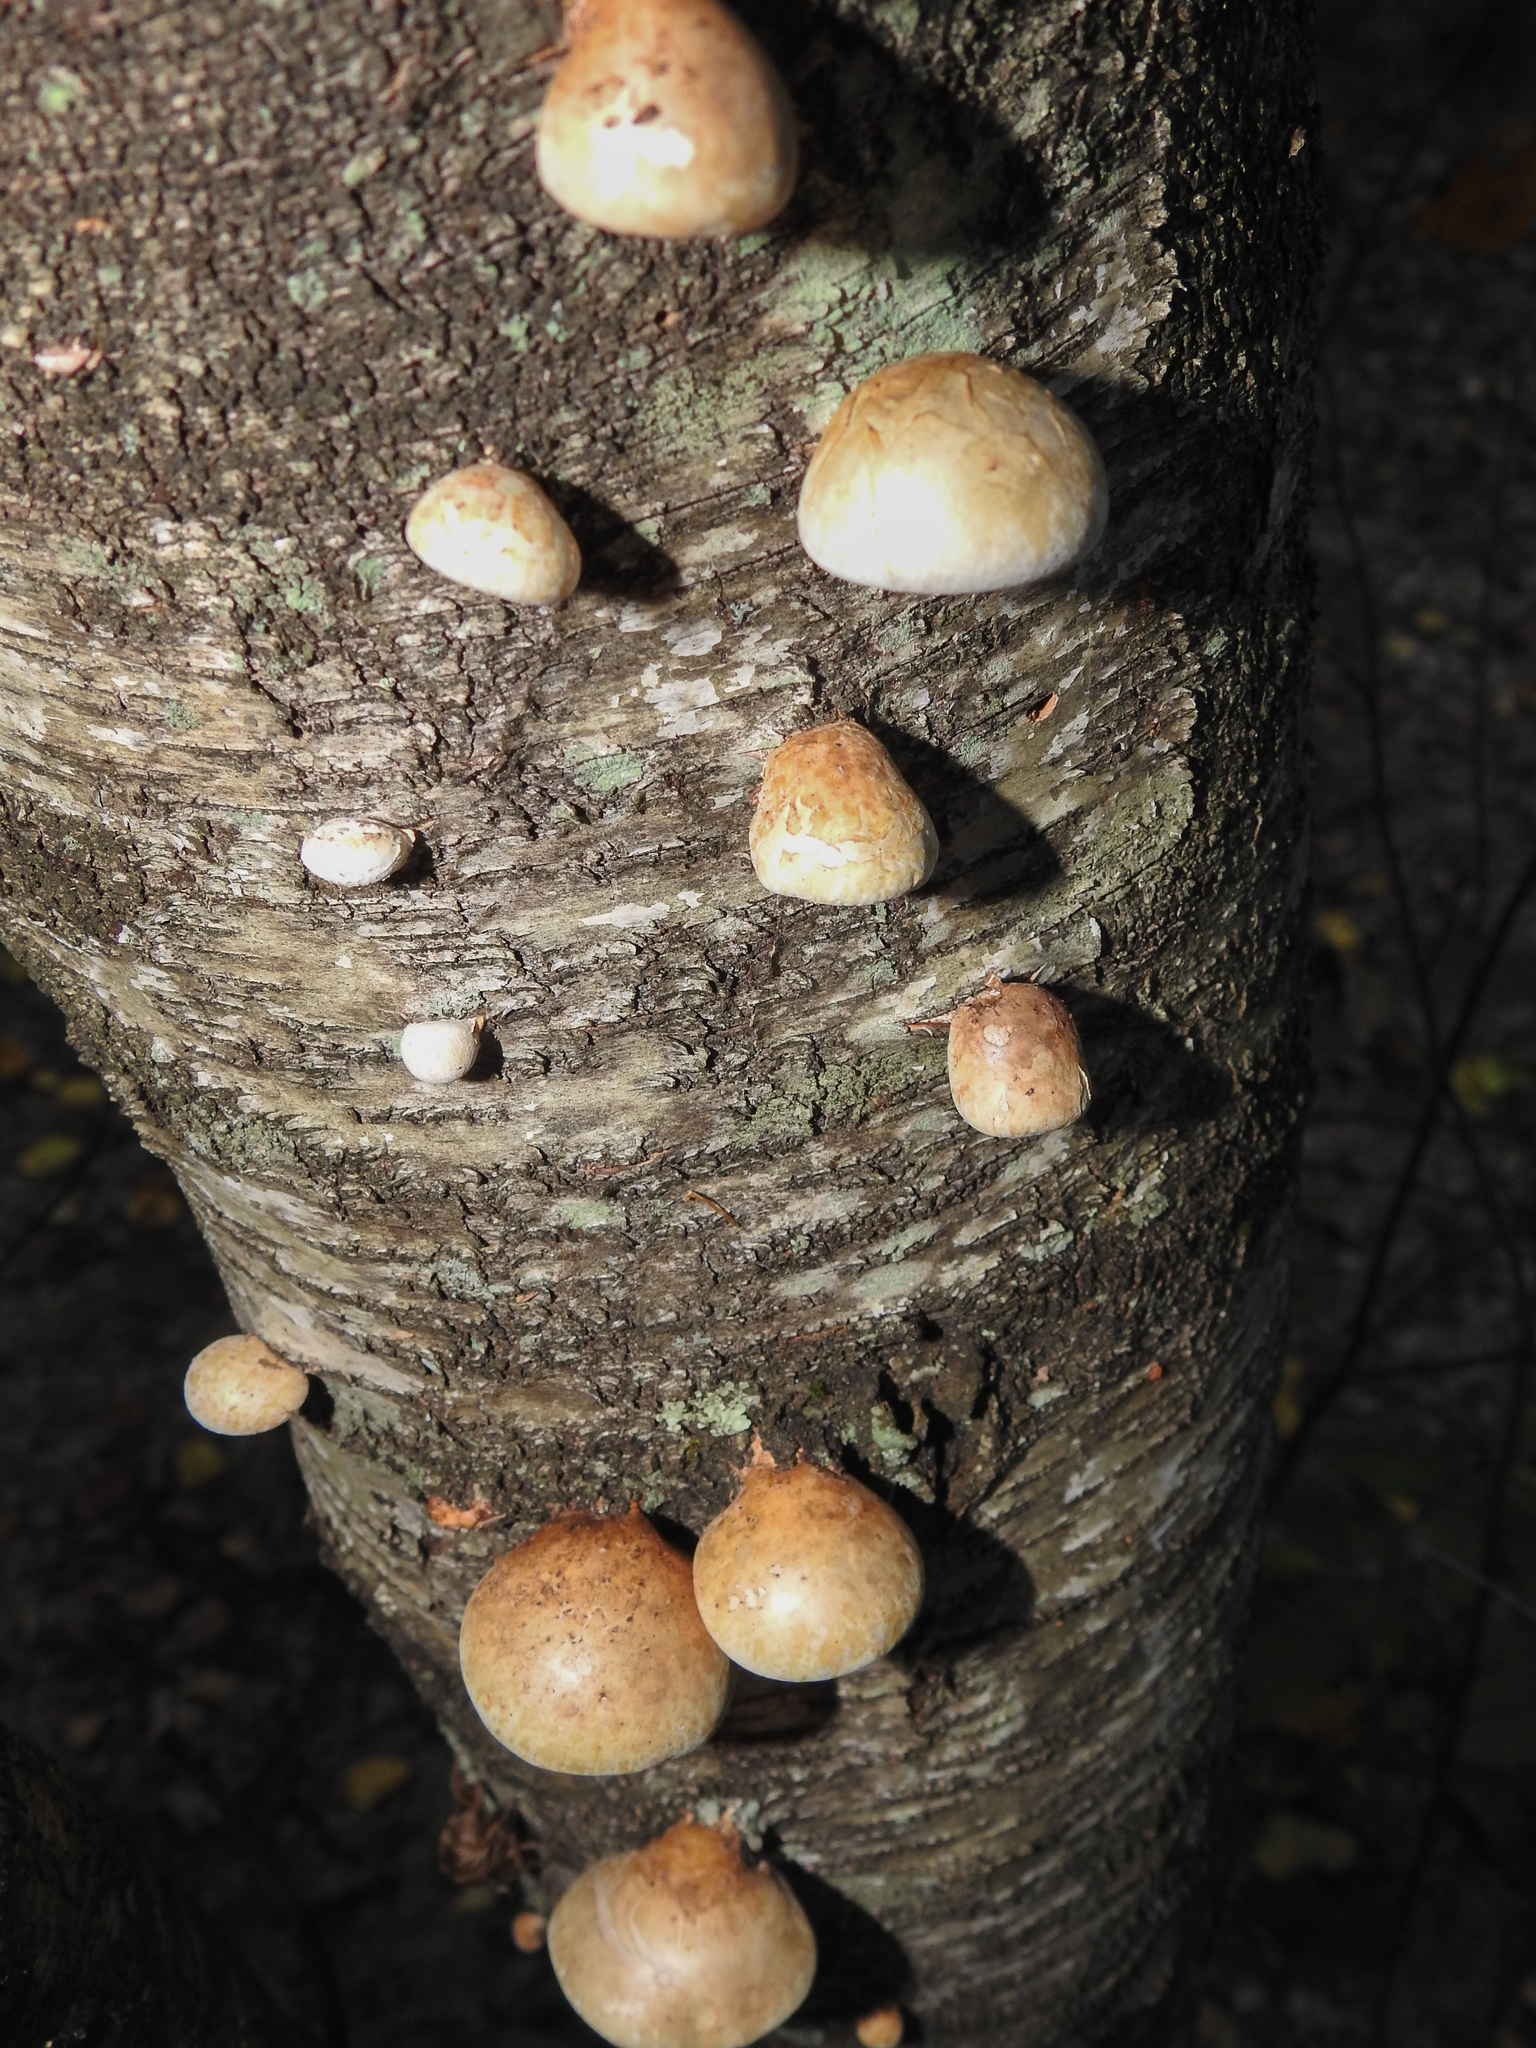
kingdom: Fungi
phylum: Basidiomycota
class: Agaricomycetes
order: Polyporales
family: Fomitopsidaceae
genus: Fomitopsis
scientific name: Fomitopsis betulina
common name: Birch polypore
